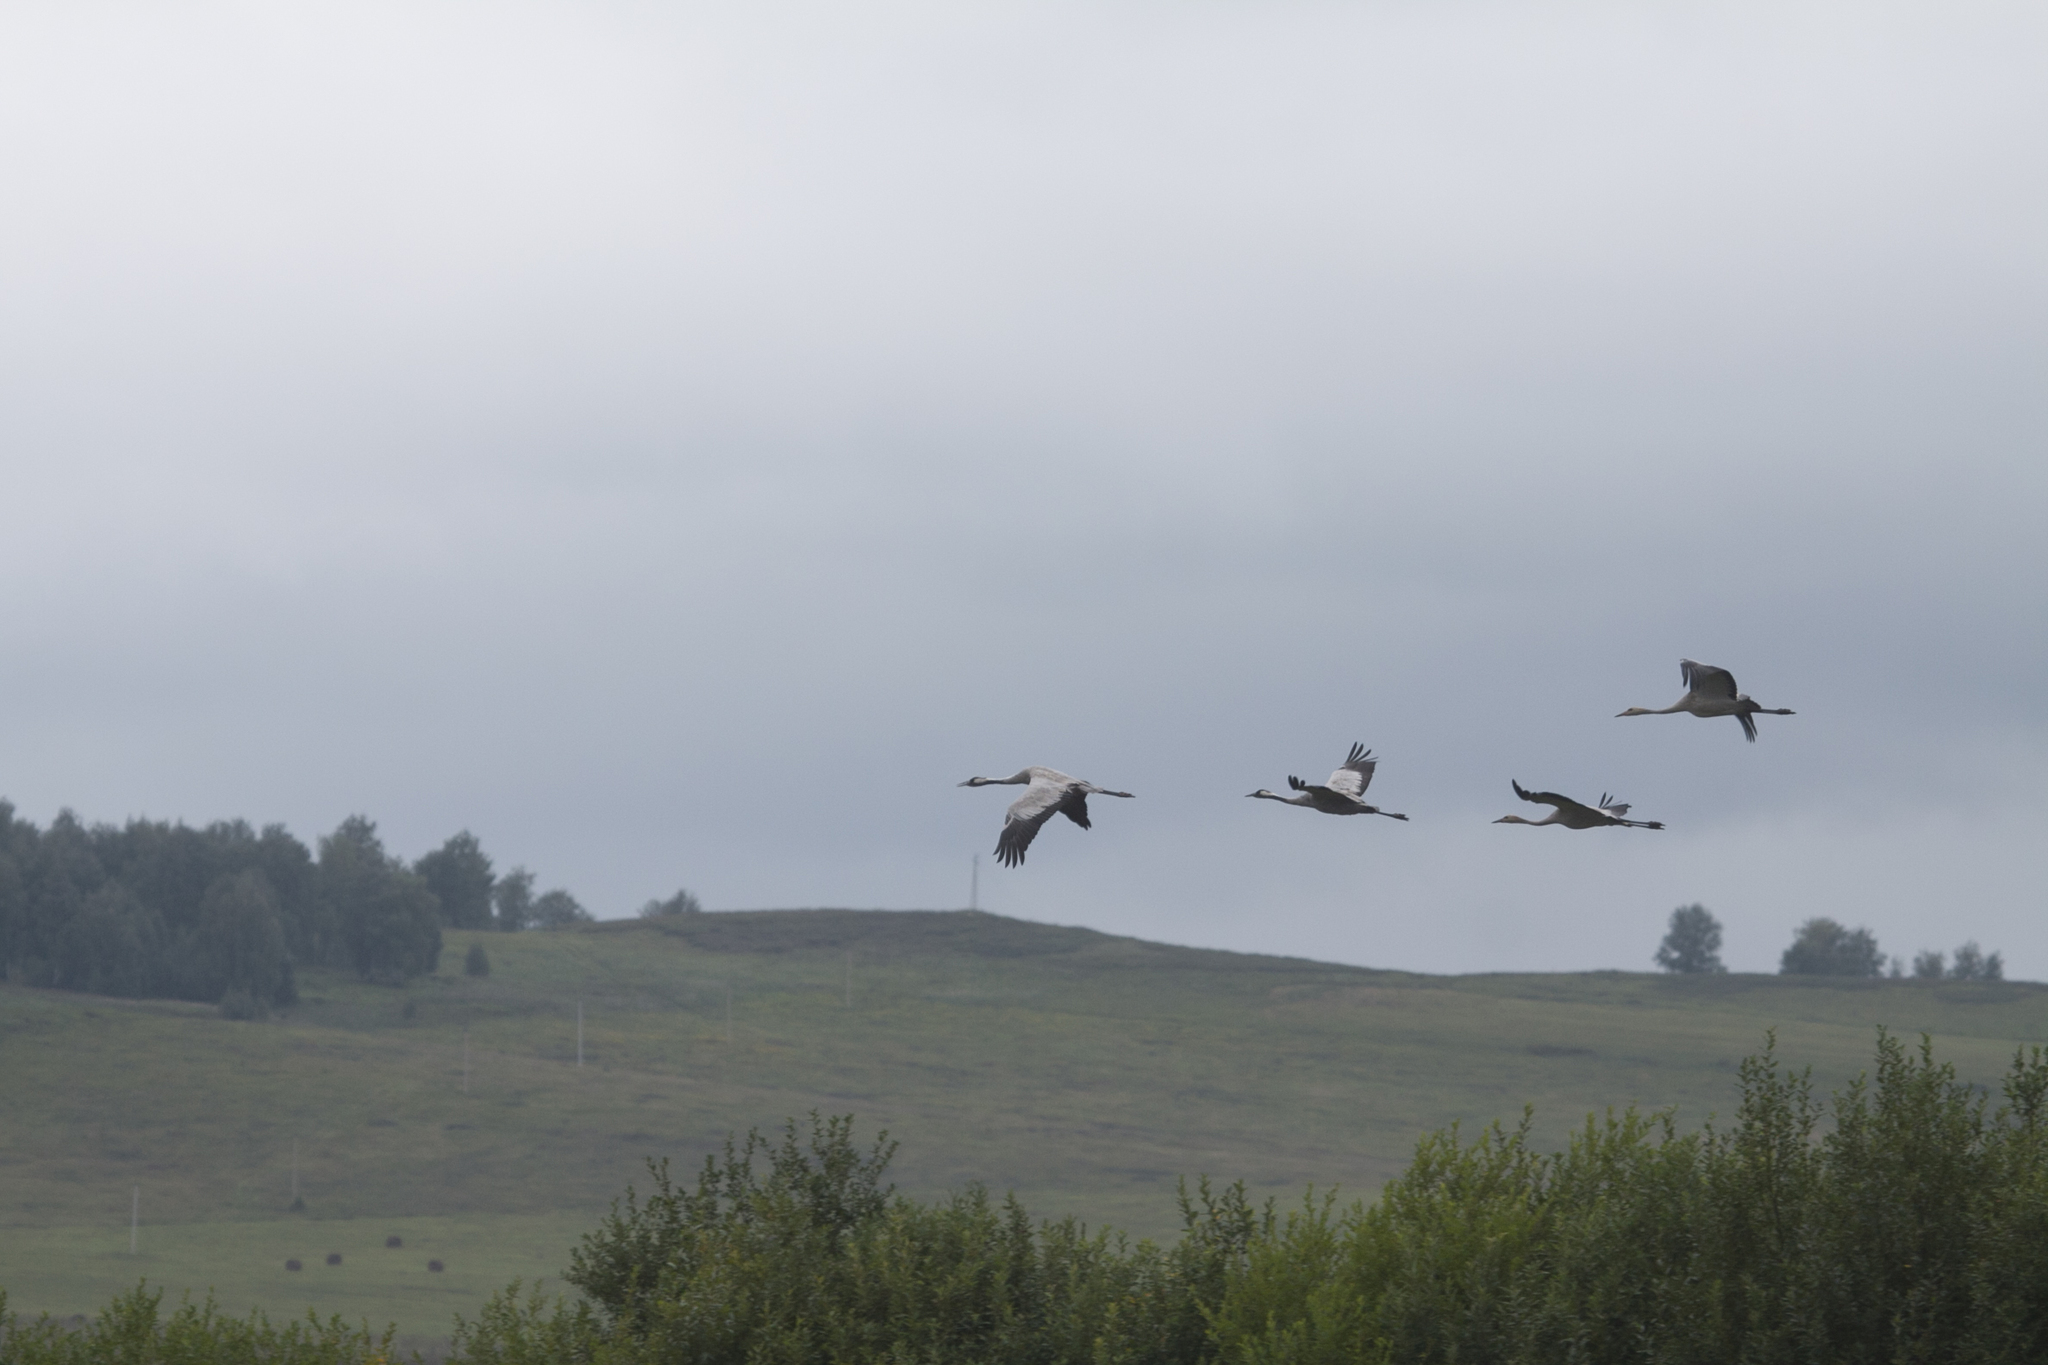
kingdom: Animalia
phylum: Chordata
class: Aves
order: Gruiformes
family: Gruidae
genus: Grus
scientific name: Grus grus
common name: Common crane
